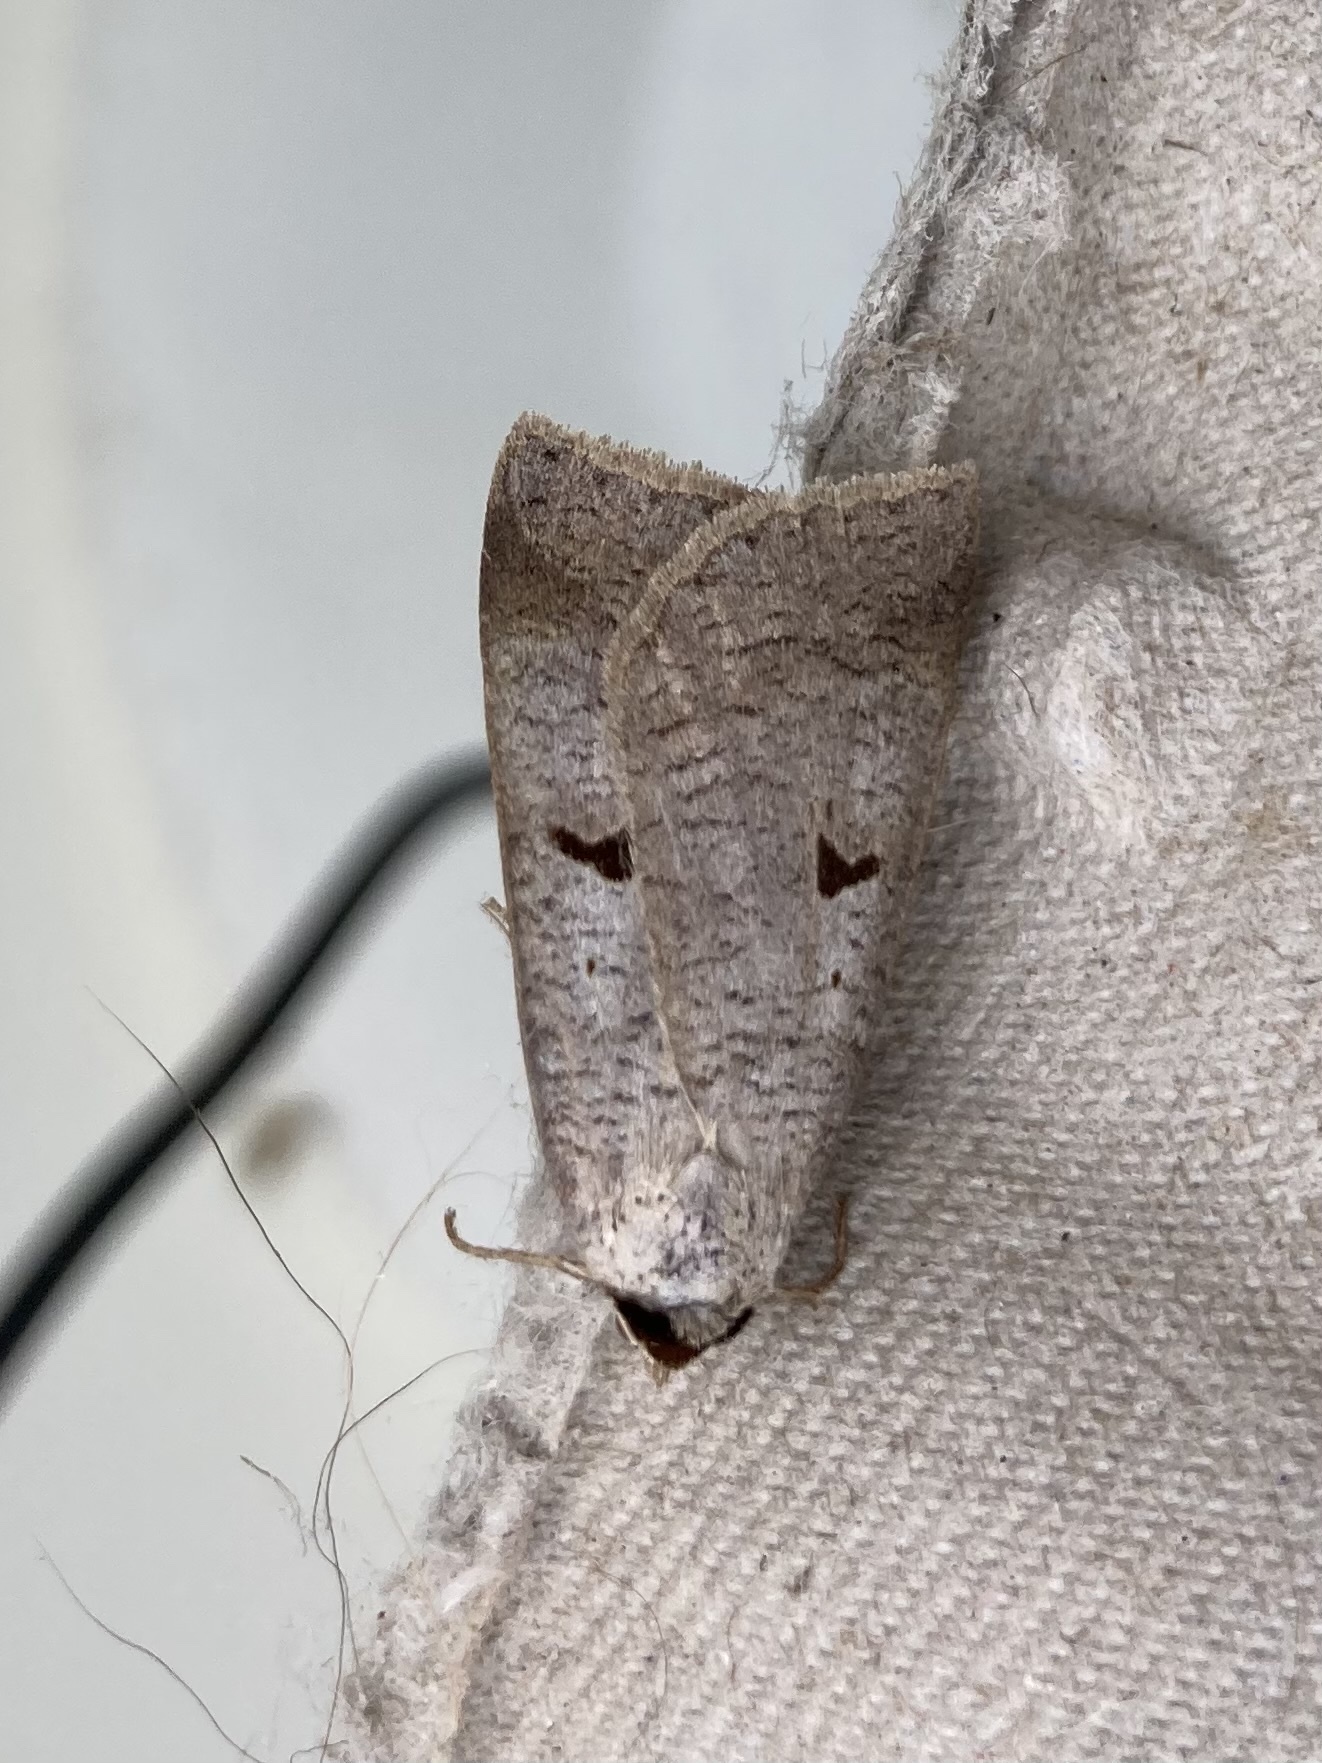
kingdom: Animalia
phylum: Arthropoda
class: Insecta
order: Lepidoptera
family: Erebidae
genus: Lygephila
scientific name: Lygephila pastinum
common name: Blackneck
